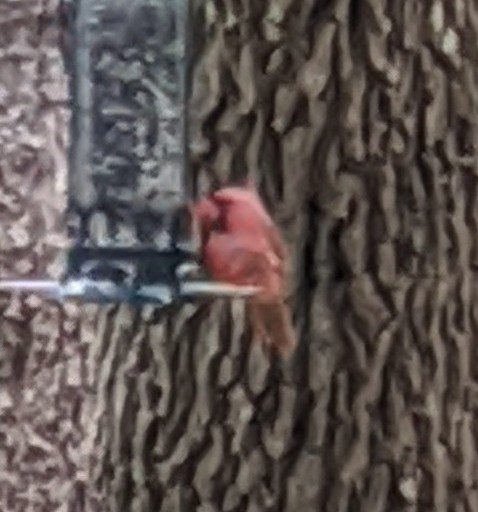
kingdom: Animalia
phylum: Chordata
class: Aves
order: Passeriformes
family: Cardinalidae
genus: Cardinalis
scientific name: Cardinalis cardinalis
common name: Northern cardinal
